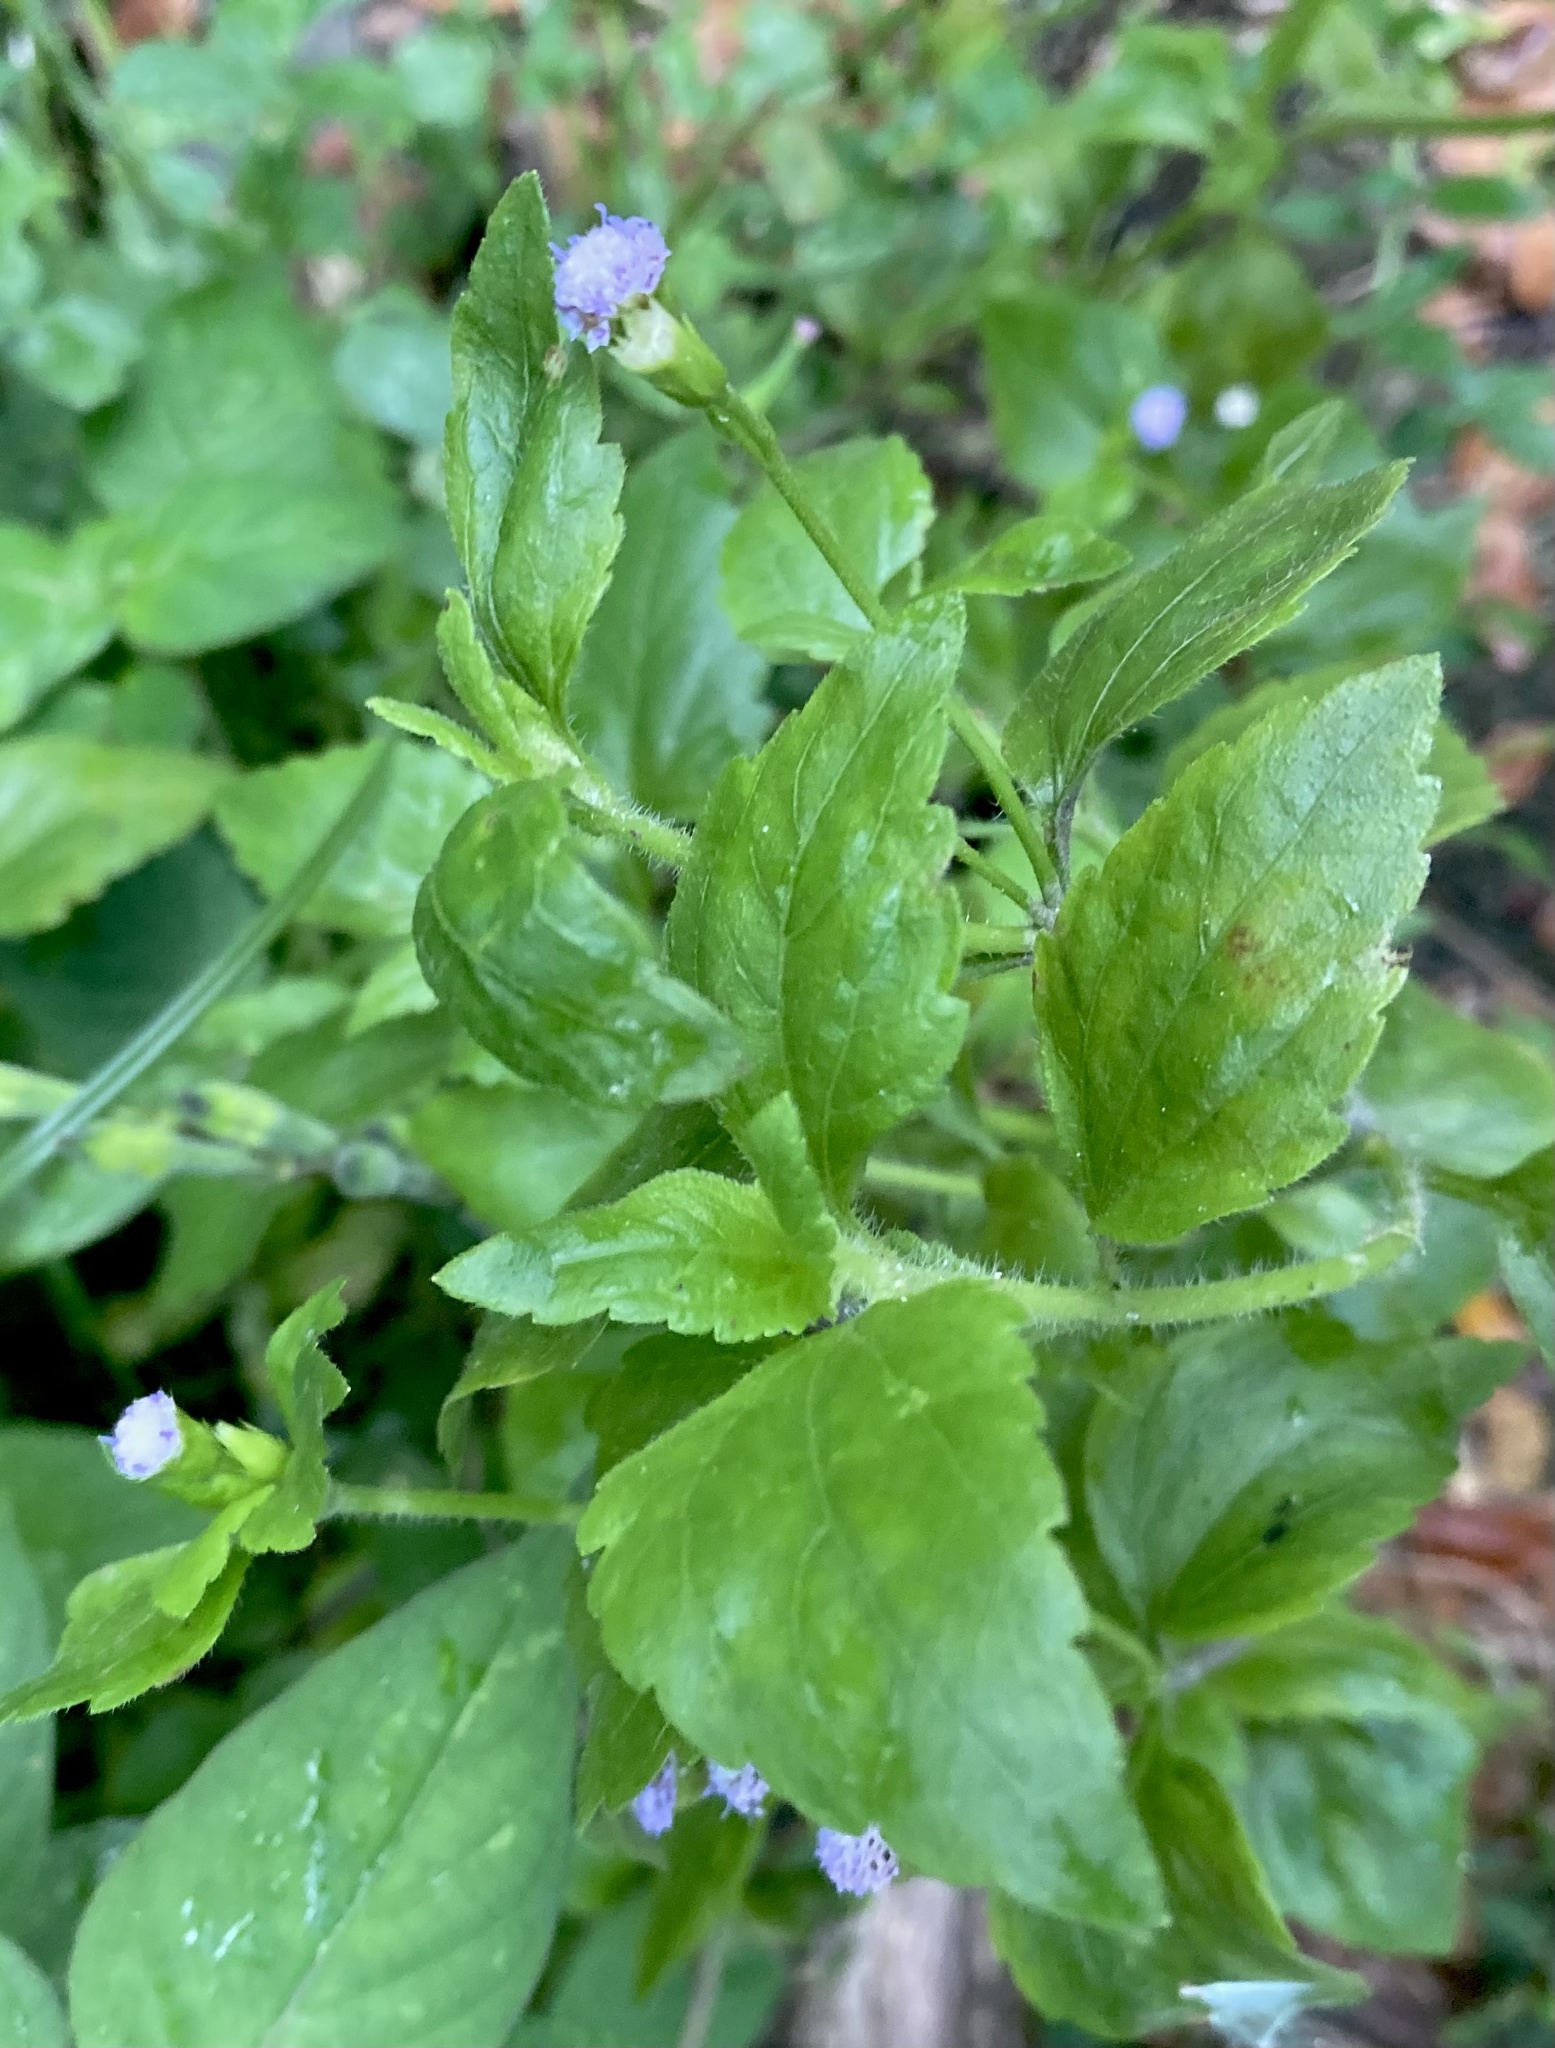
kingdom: Plantae
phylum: Tracheophyta
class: Magnoliopsida
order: Asterales
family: Asteraceae
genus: Praxelis
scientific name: Praxelis clematidea
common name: Praxelis
